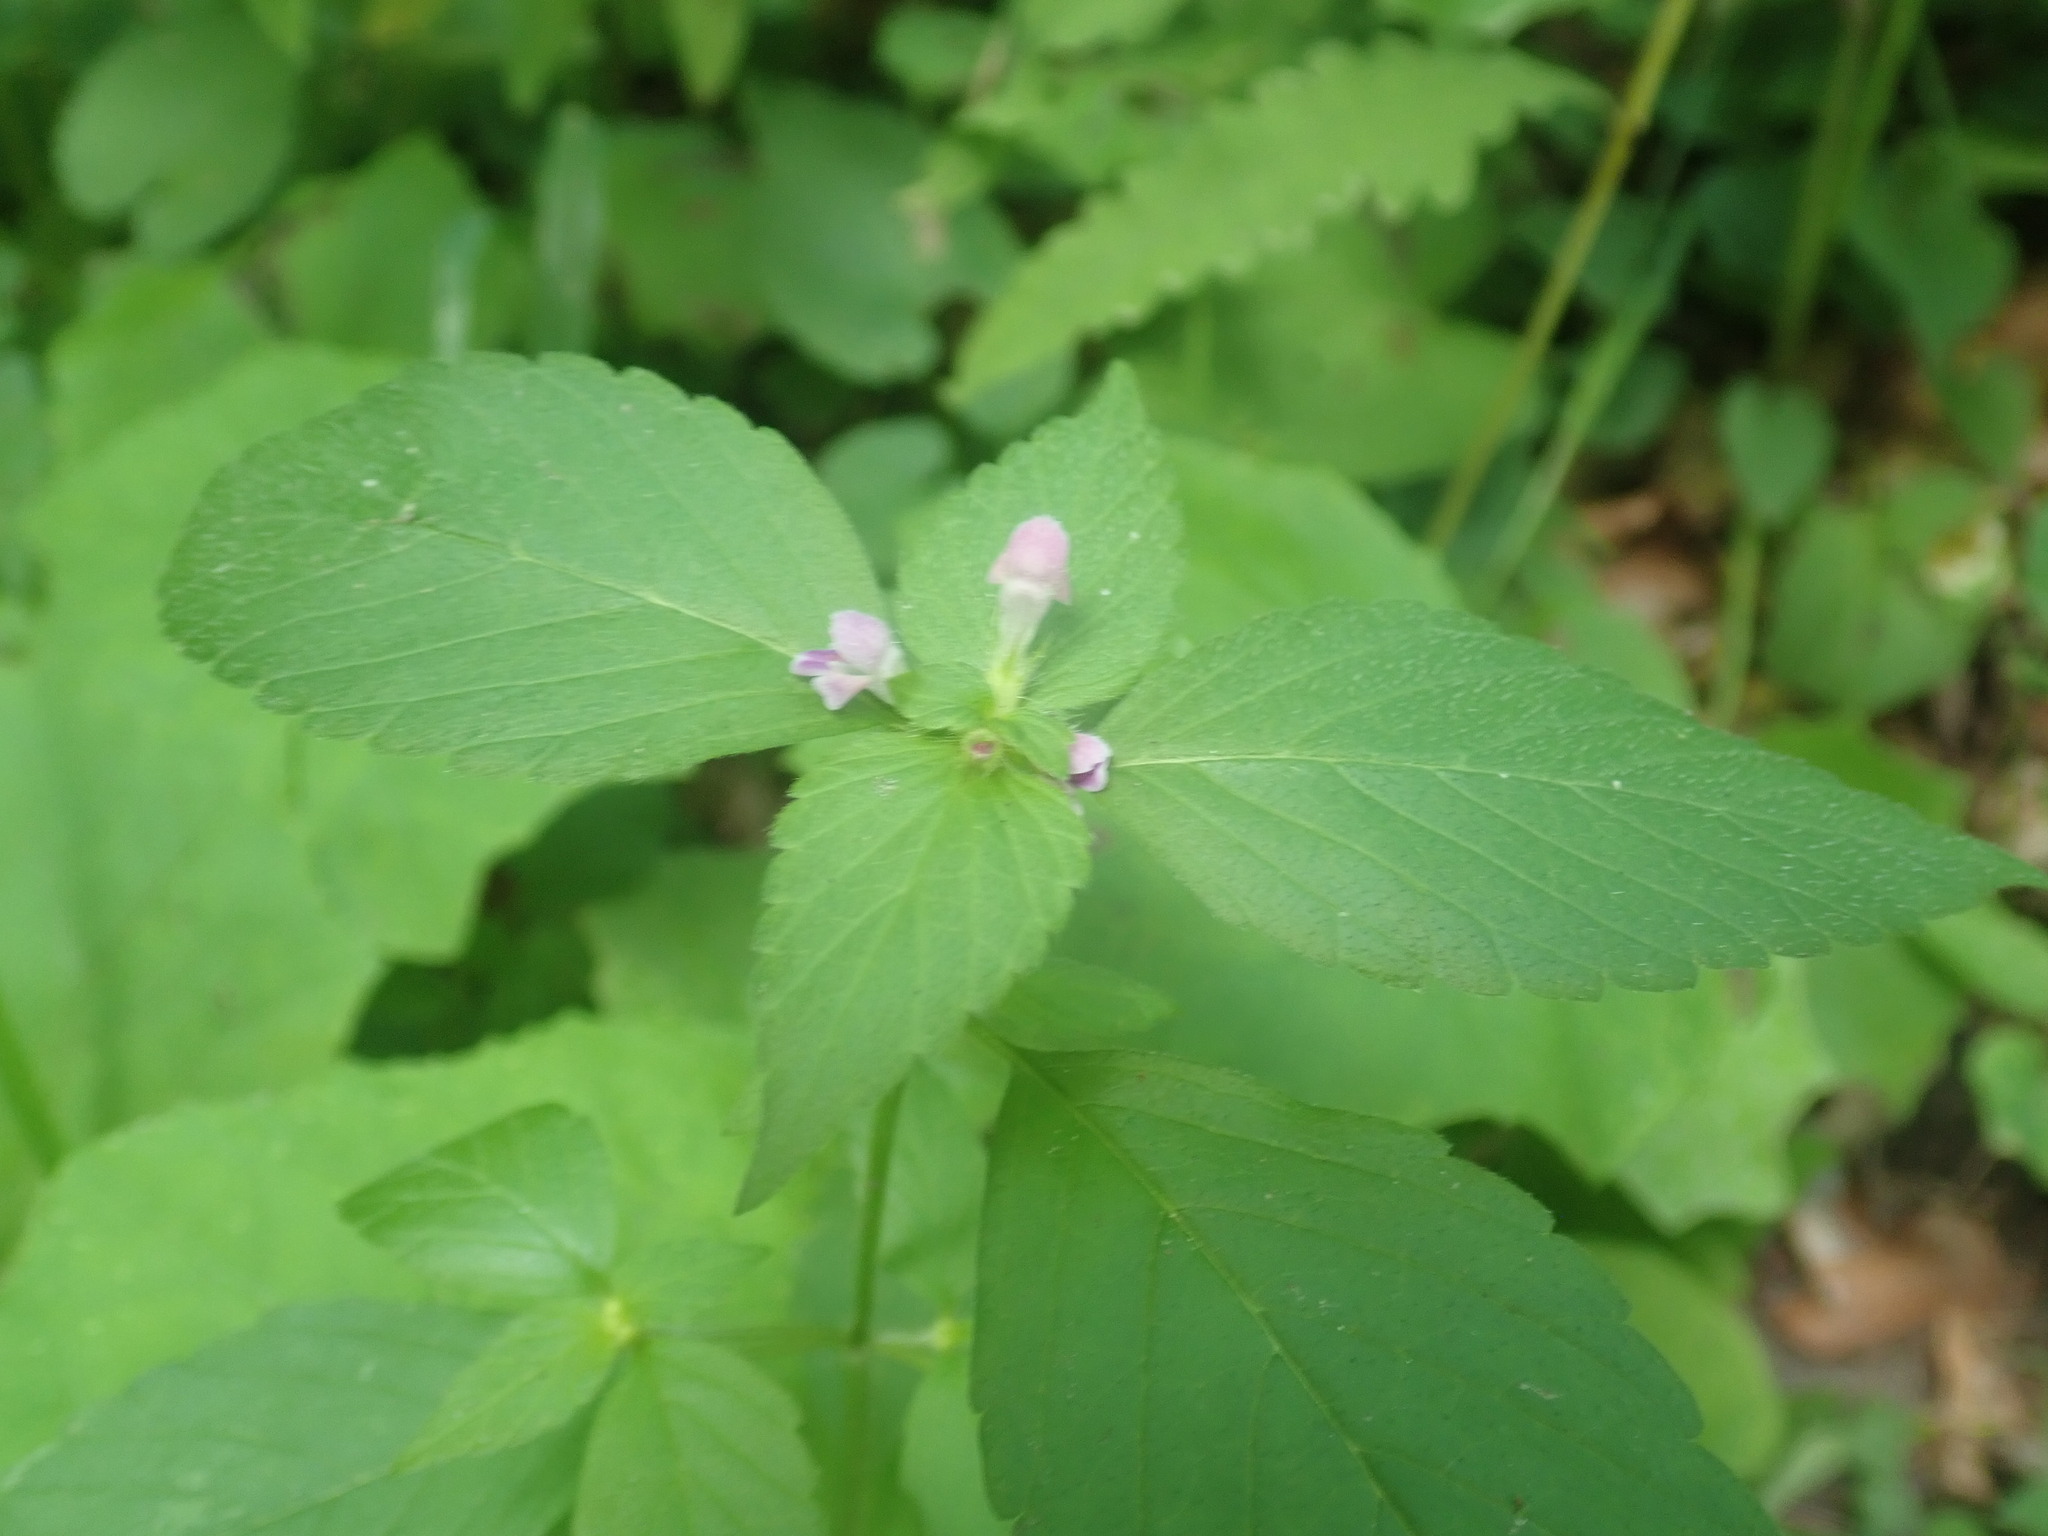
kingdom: Plantae
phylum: Tracheophyta
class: Magnoliopsida
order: Lamiales
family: Lamiaceae
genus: Galeopsis
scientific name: Galeopsis bifida
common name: Bifid hemp-nettle
